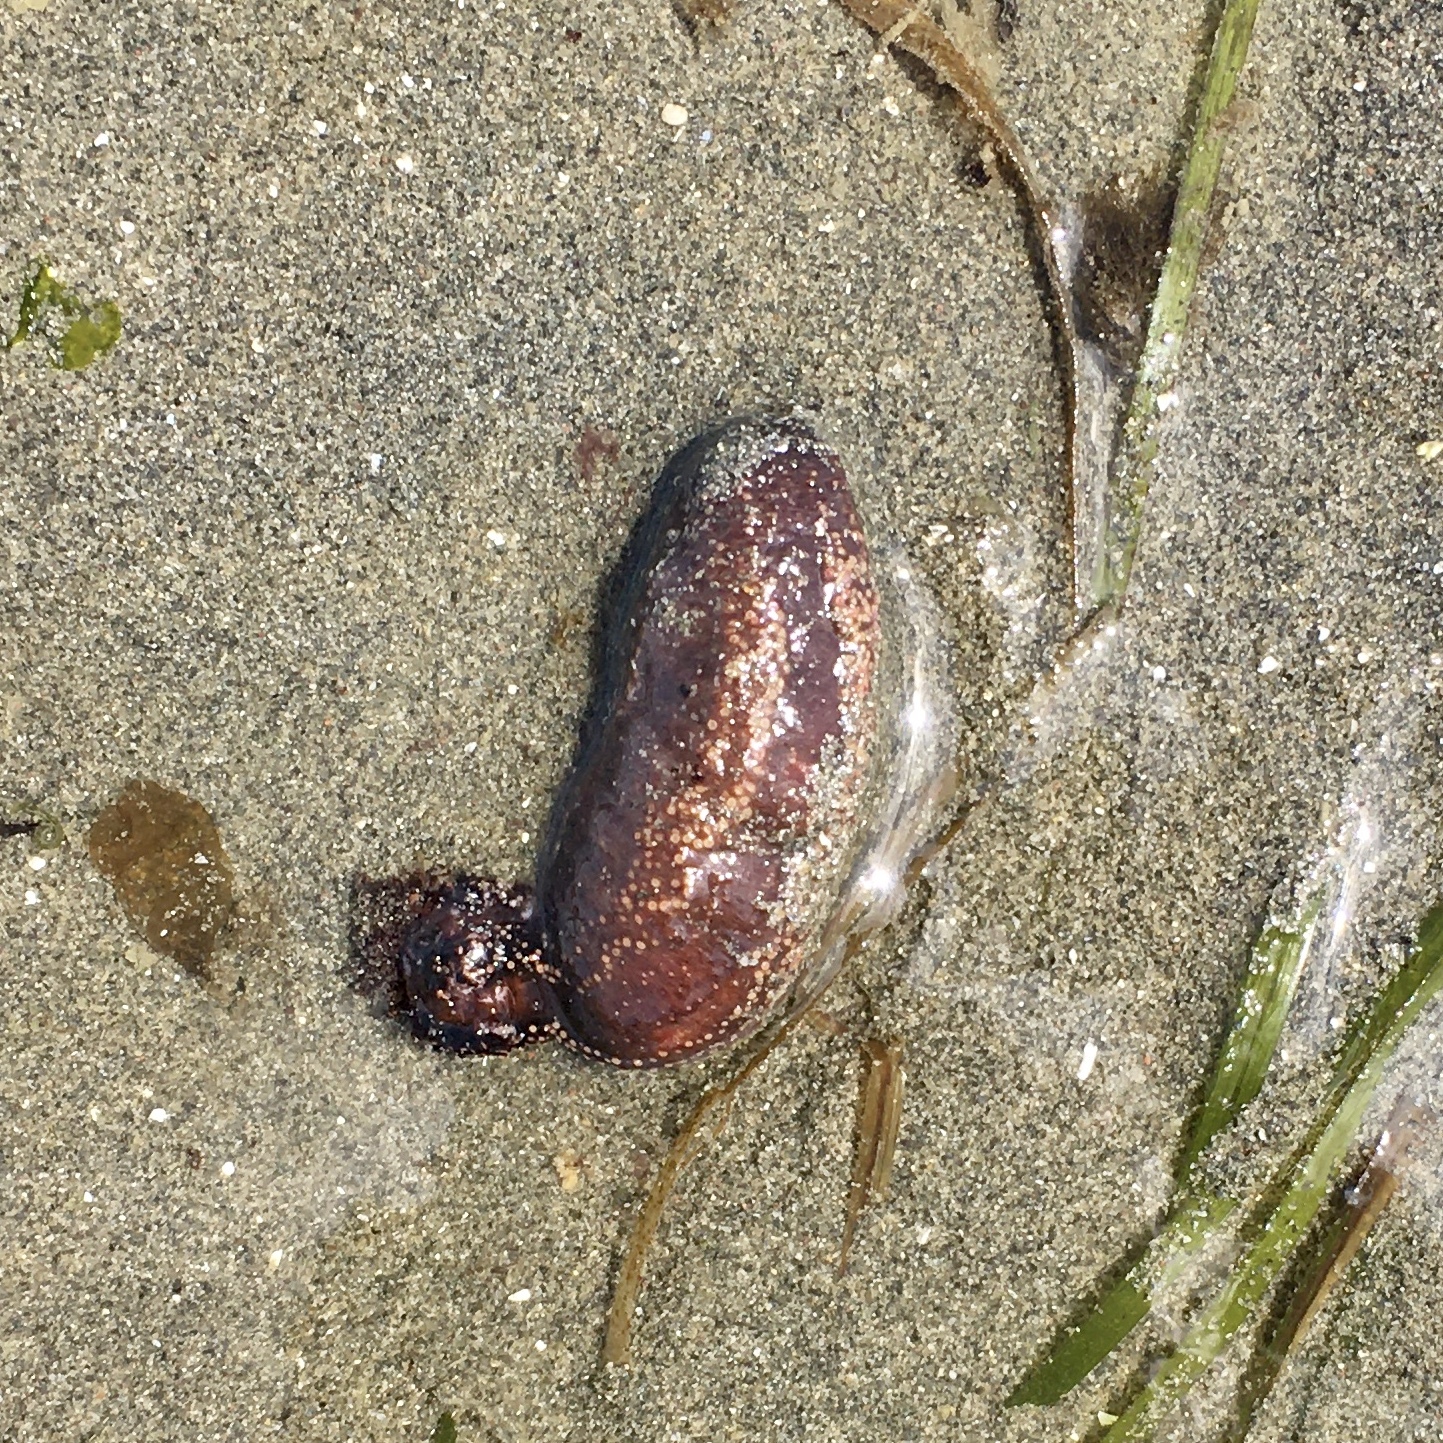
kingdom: Animalia
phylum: Echinodermata
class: Holothuroidea
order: Dendrochirotida
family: Cucumariidae
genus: Cucumaria
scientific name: Cucumaria miniata
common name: Orange sea cucumber
